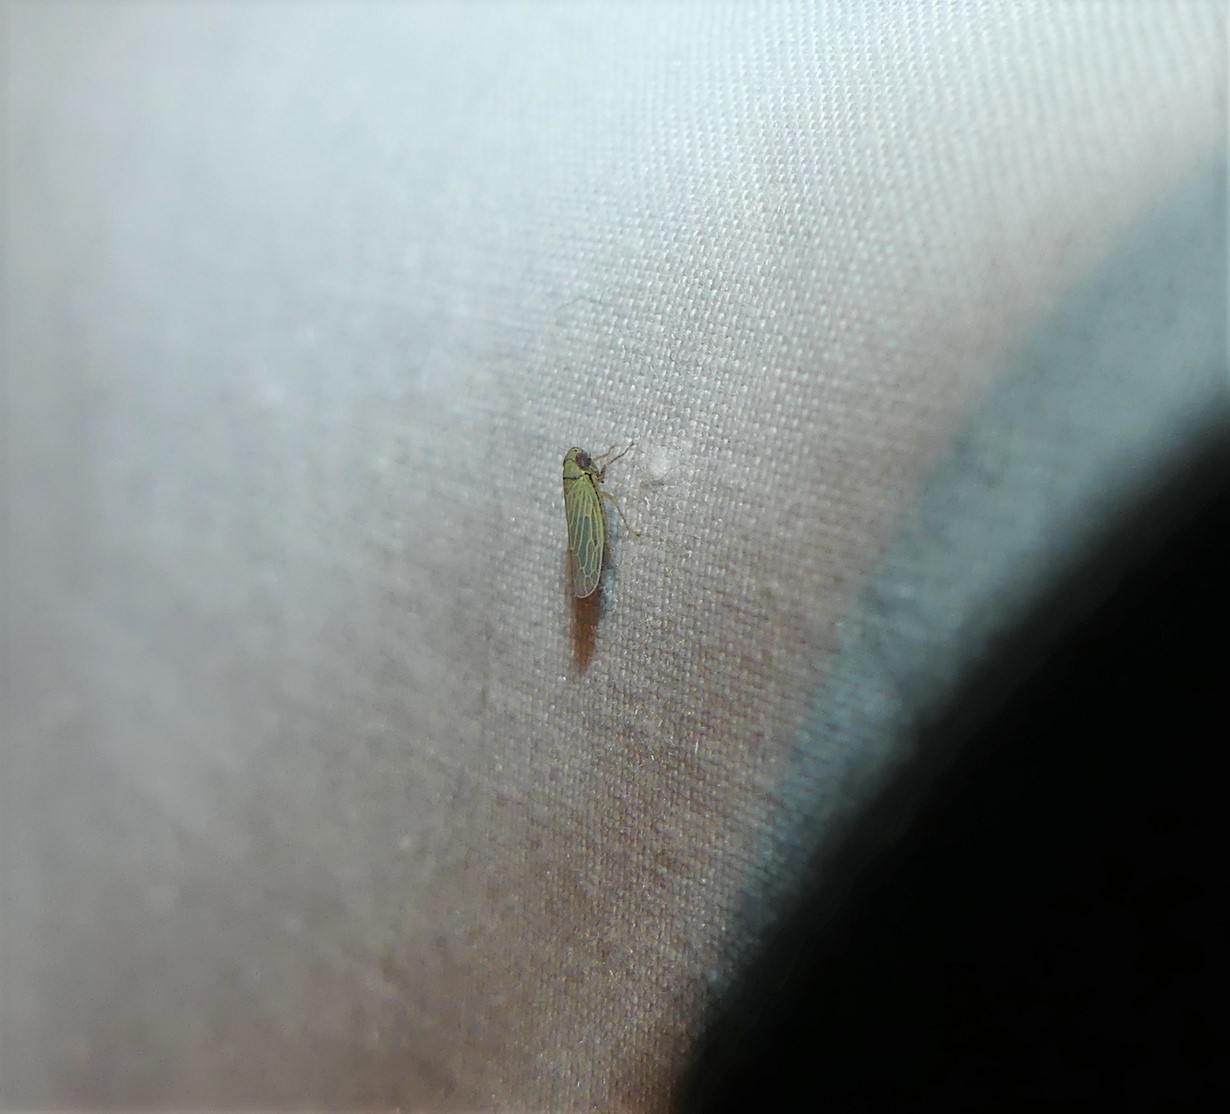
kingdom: Animalia
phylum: Arthropoda
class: Insecta
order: Hemiptera
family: Cicadellidae
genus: Graminella
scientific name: Graminella nigrifrons
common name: Blackfaced leafhopper
